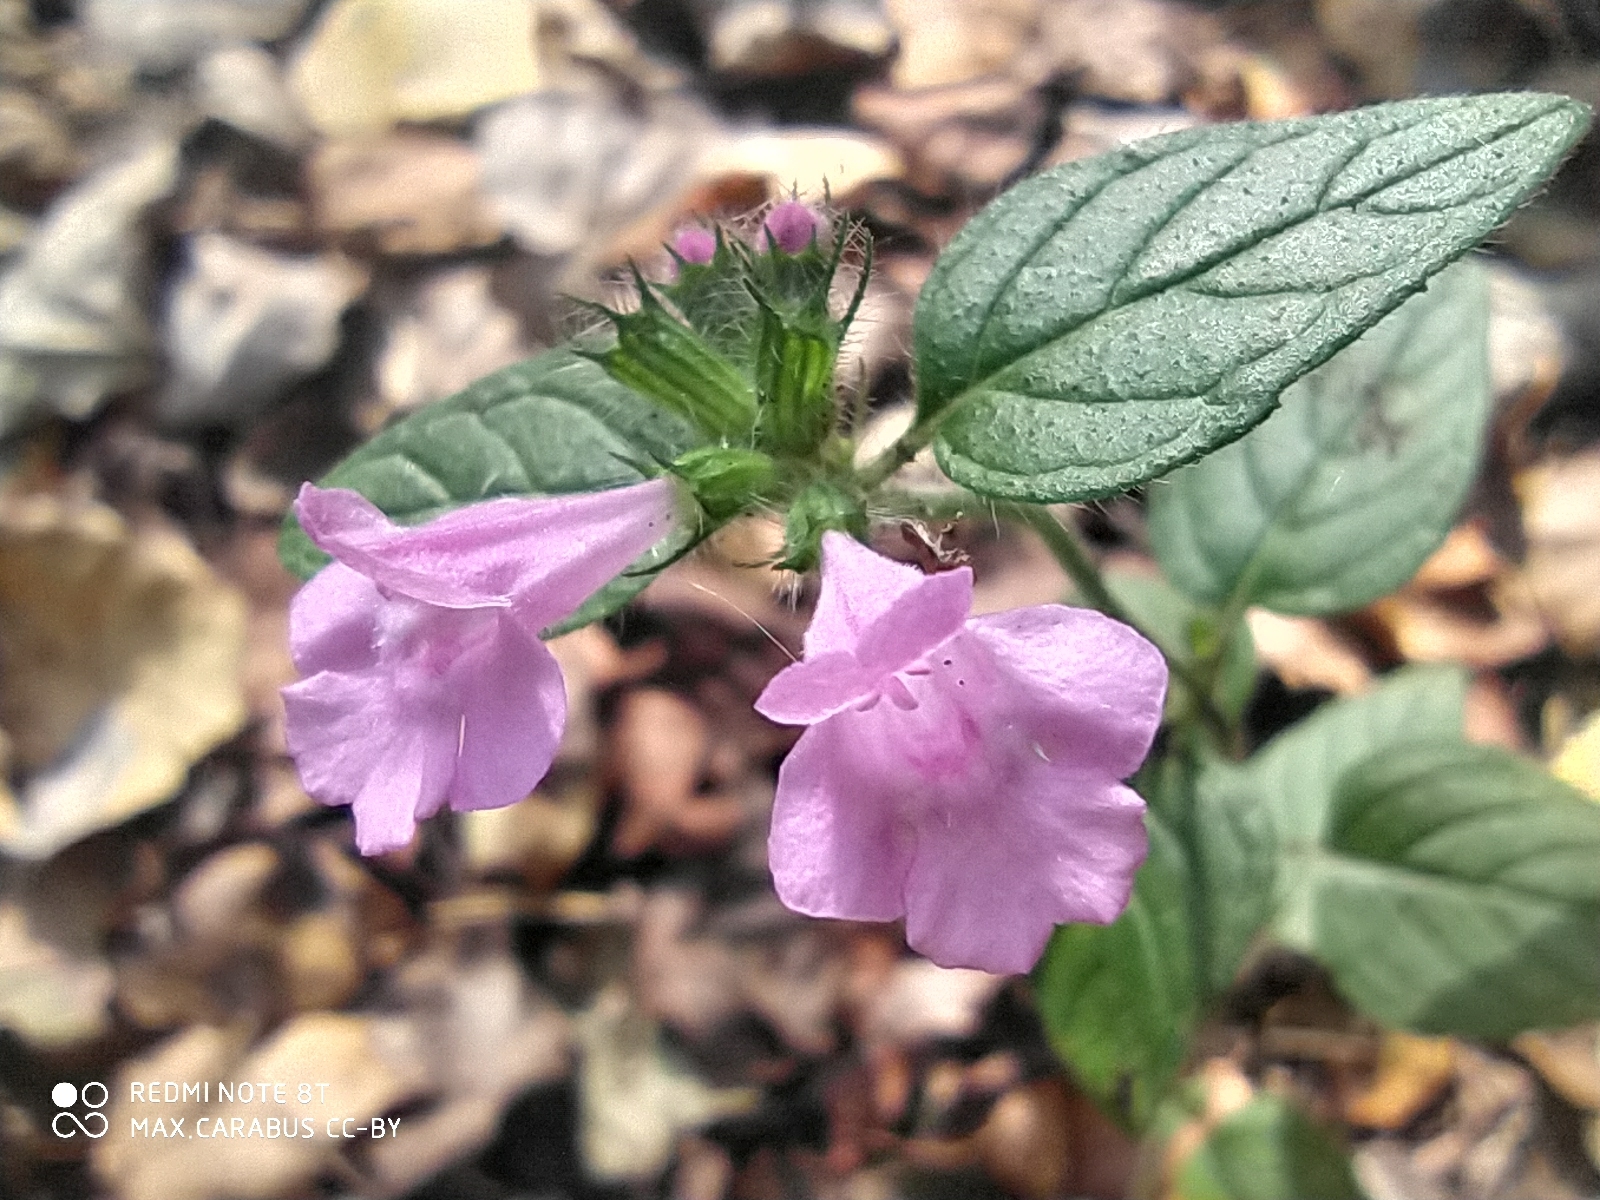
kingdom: Plantae
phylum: Tracheophyta
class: Magnoliopsida
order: Lamiales
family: Lamiaceae
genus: Clinopodium
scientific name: Clinopodium vulgare
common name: Wild basil
